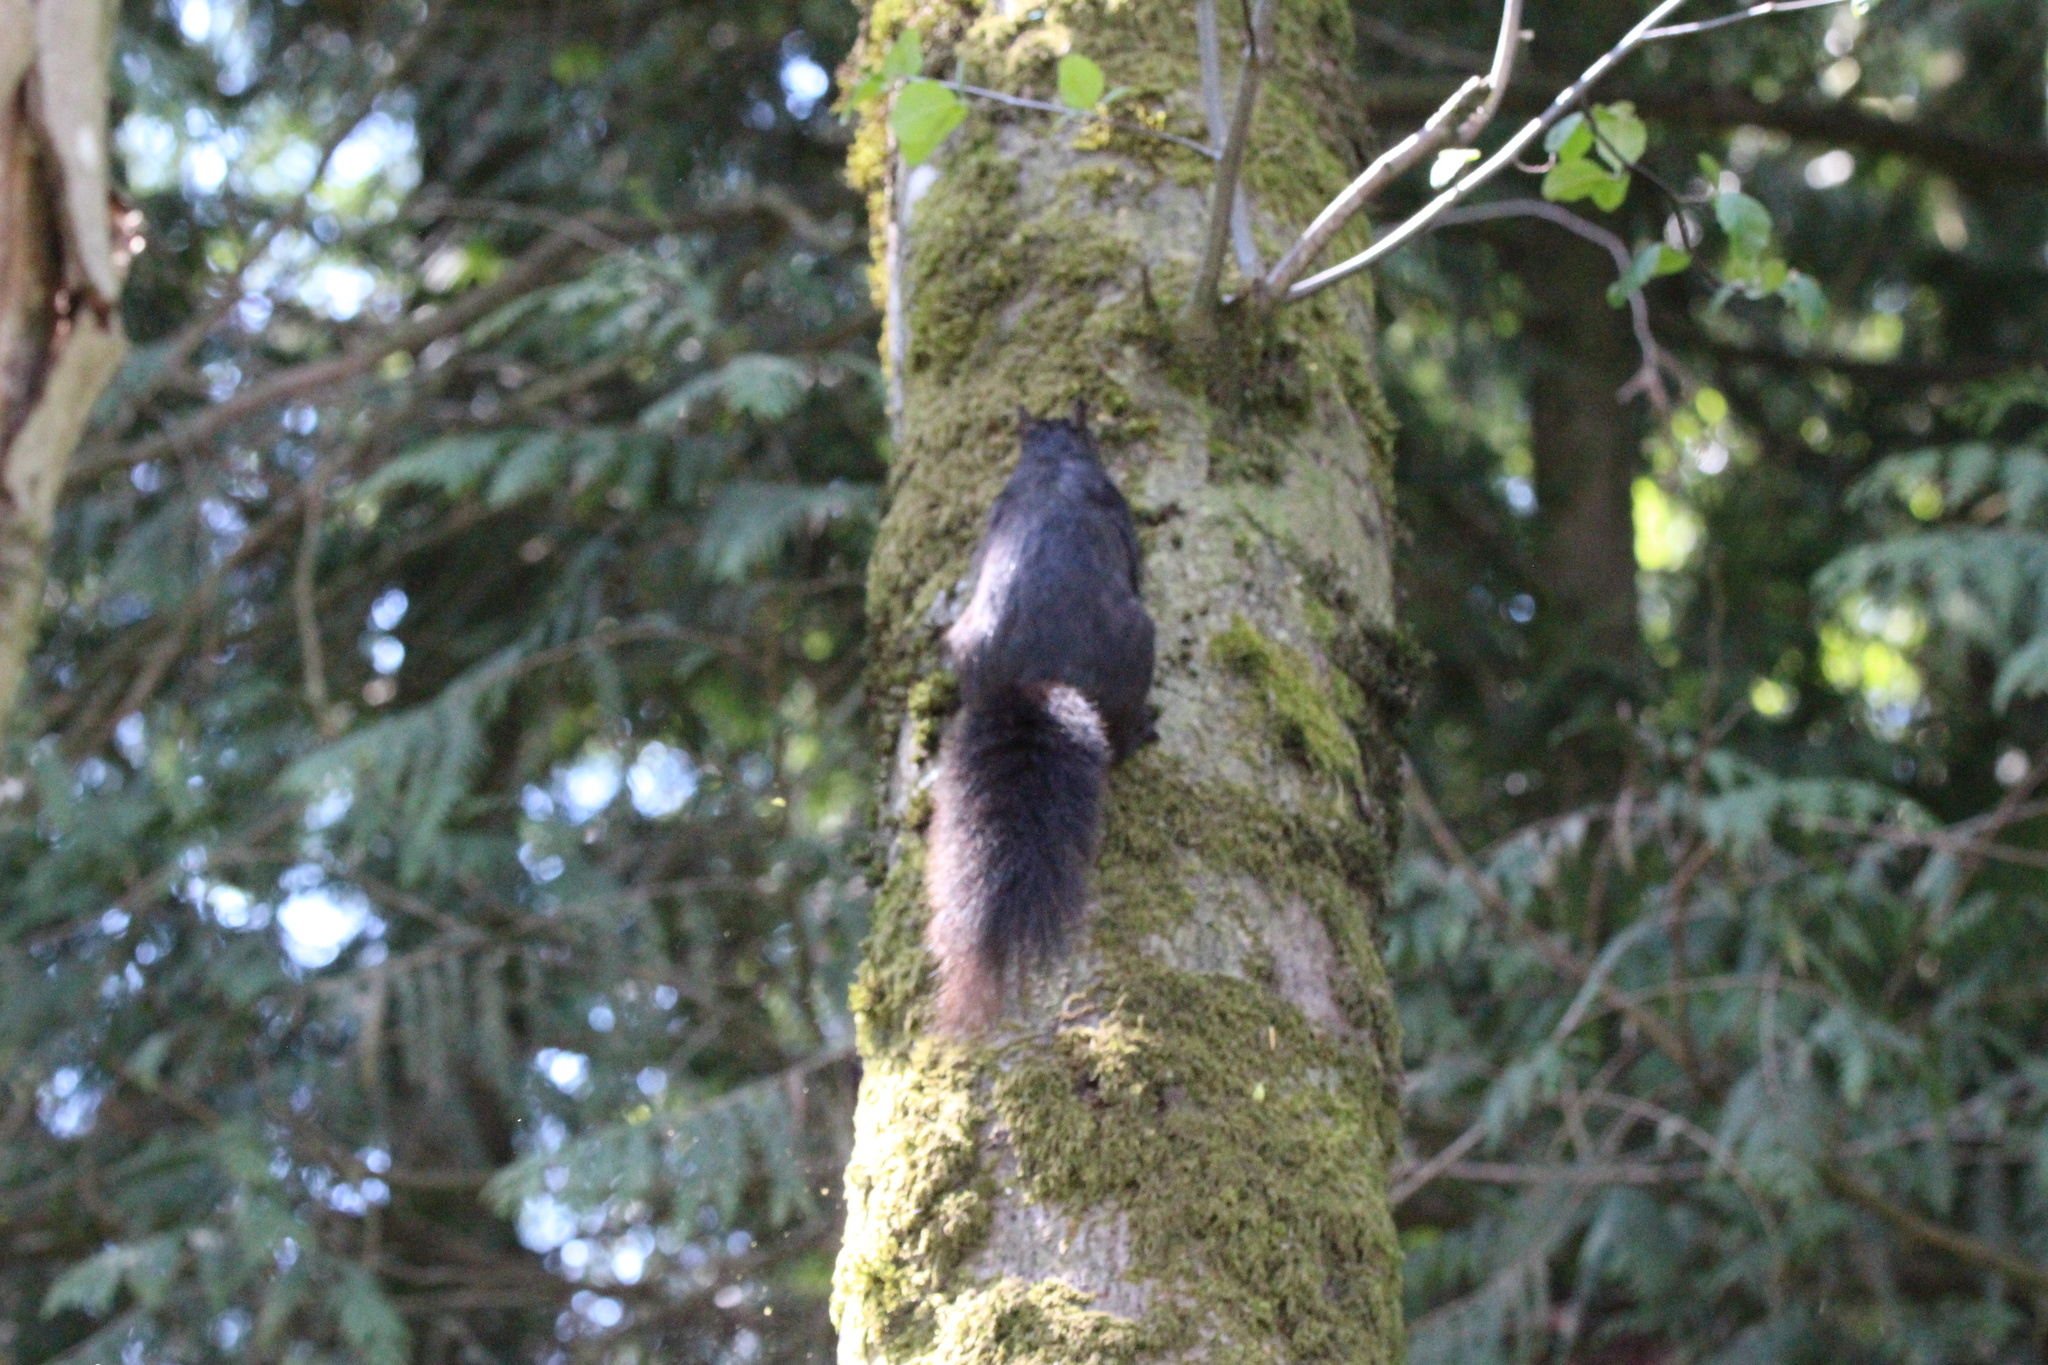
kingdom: Animalia
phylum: Chordata
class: Mammalia
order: Rodentia
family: Sciuridae
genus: Sciurus
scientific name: Sciurus carolinensis
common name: Eastern gray squirrel
